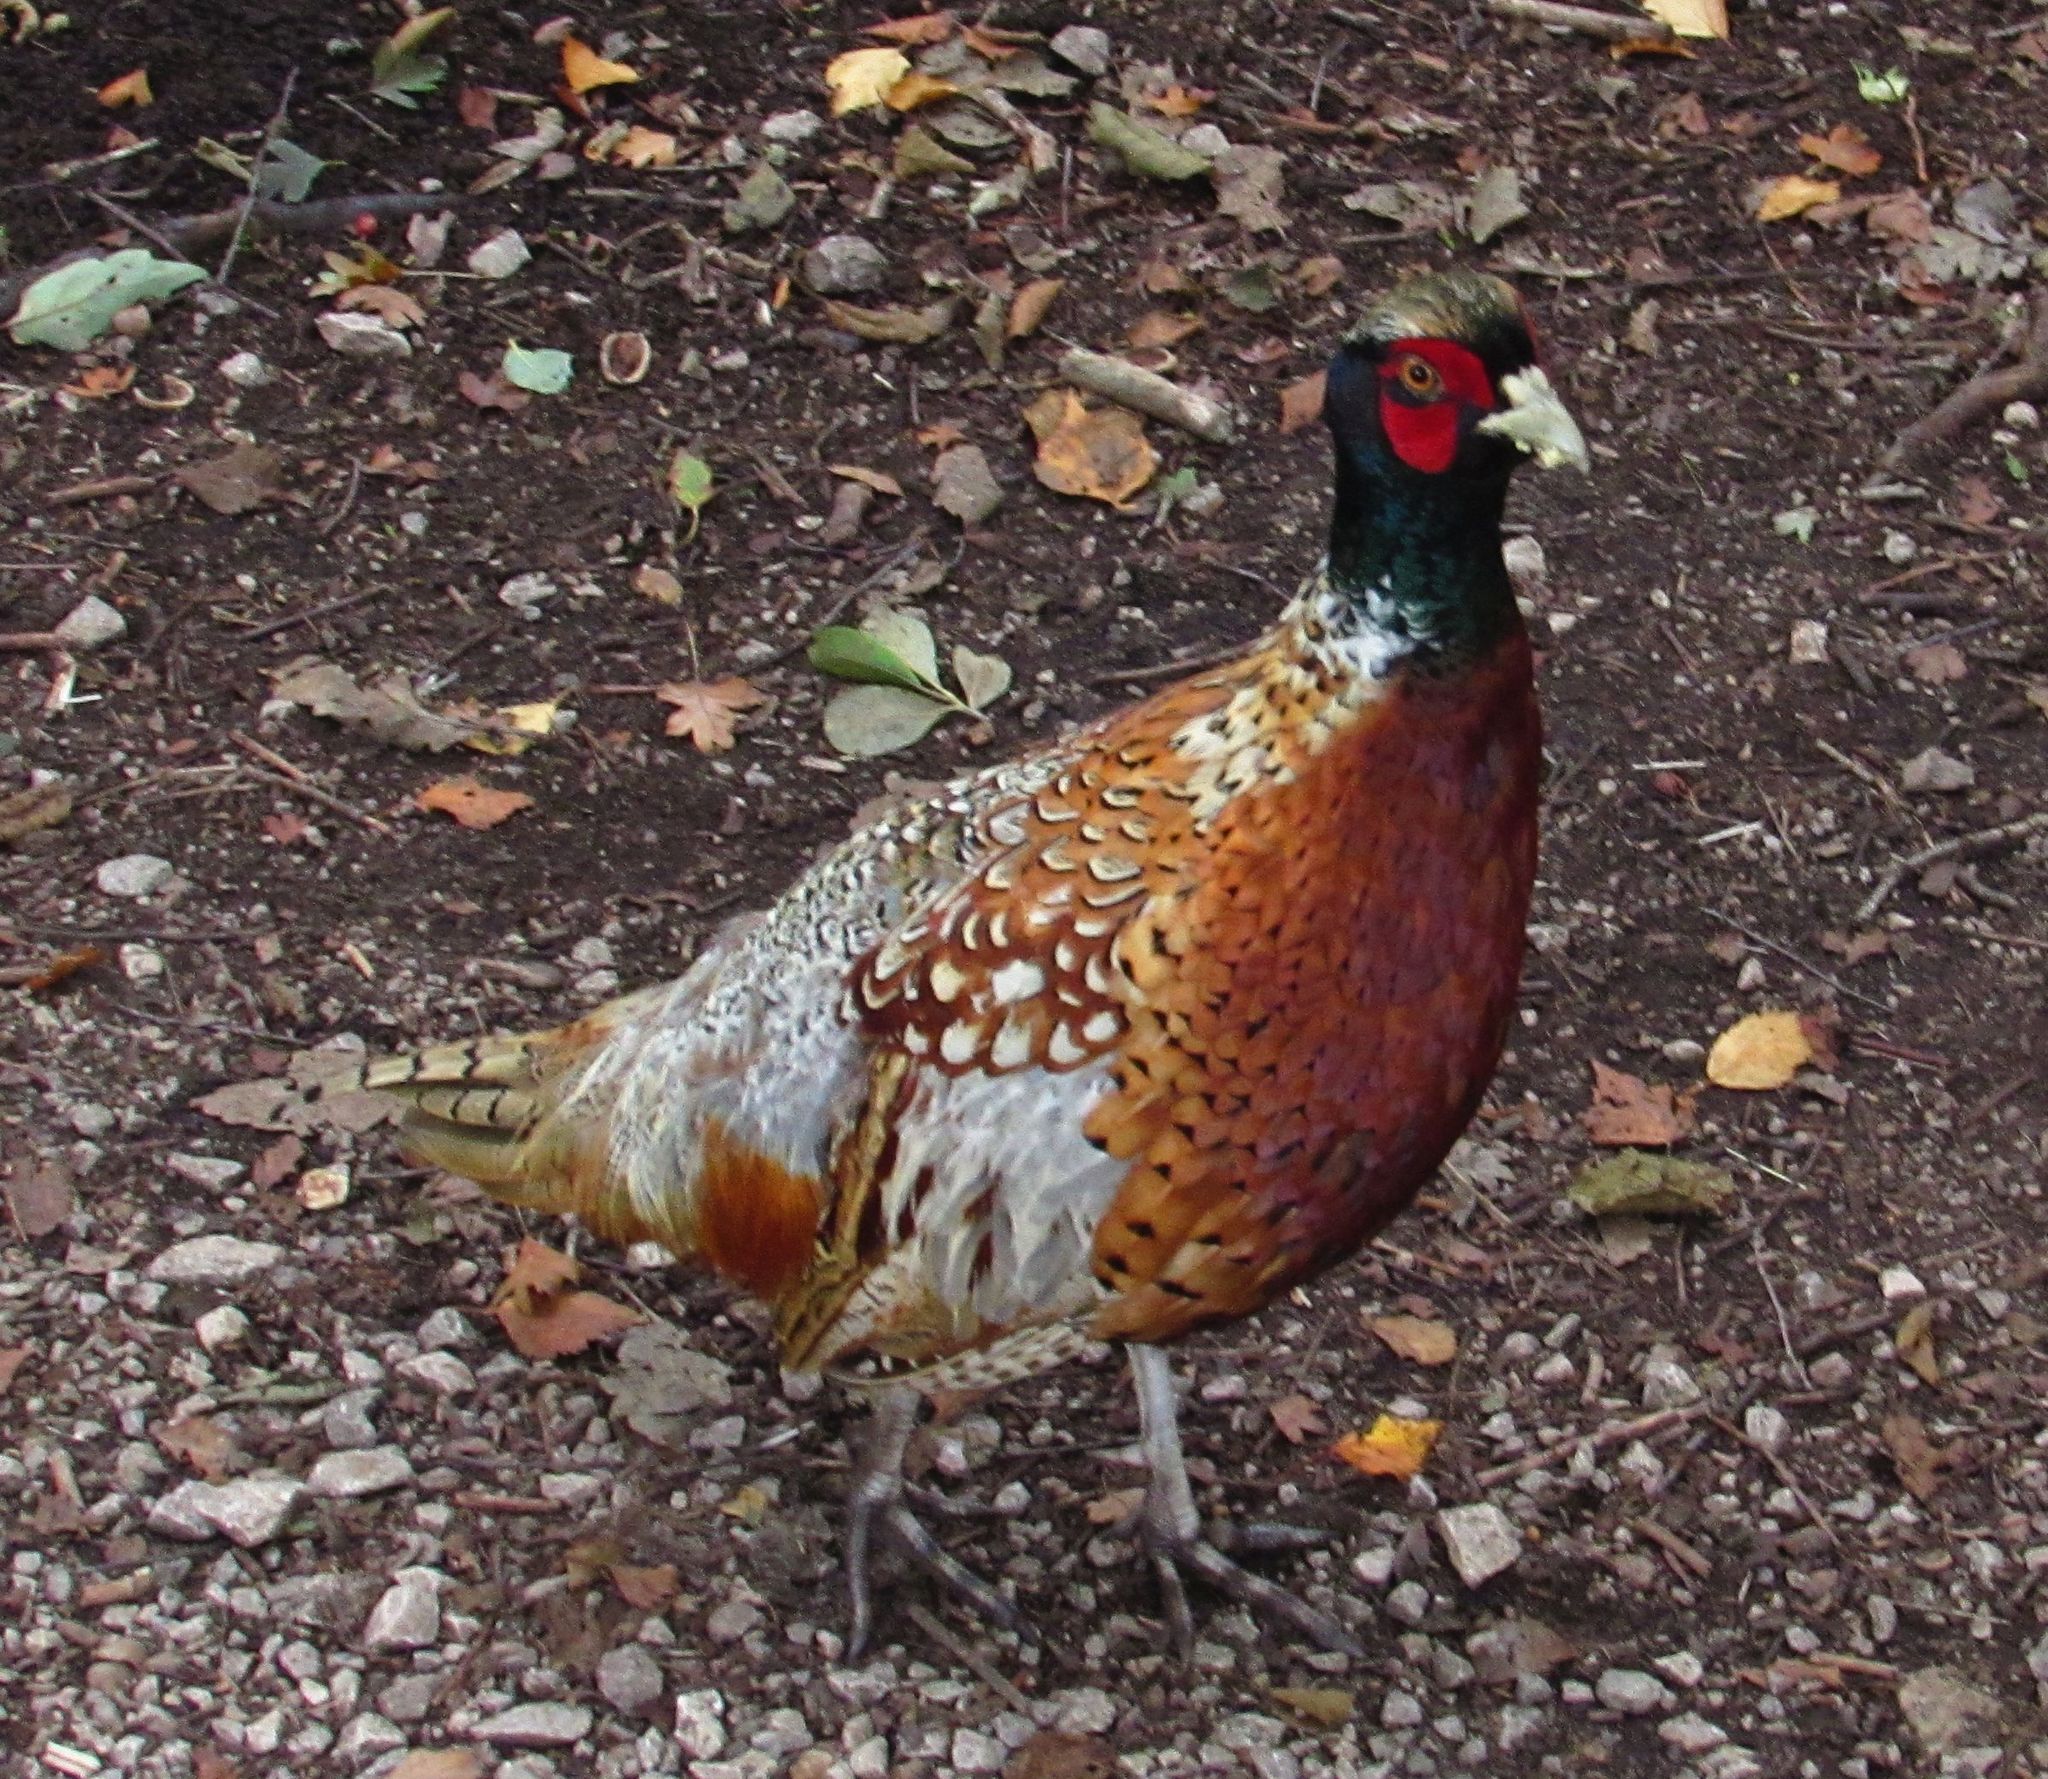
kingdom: Animalia
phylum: Chordata
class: Aves
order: Galliformes
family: Phasianidae
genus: Phasianus
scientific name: Phasianus colchicus
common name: Common pheasant
